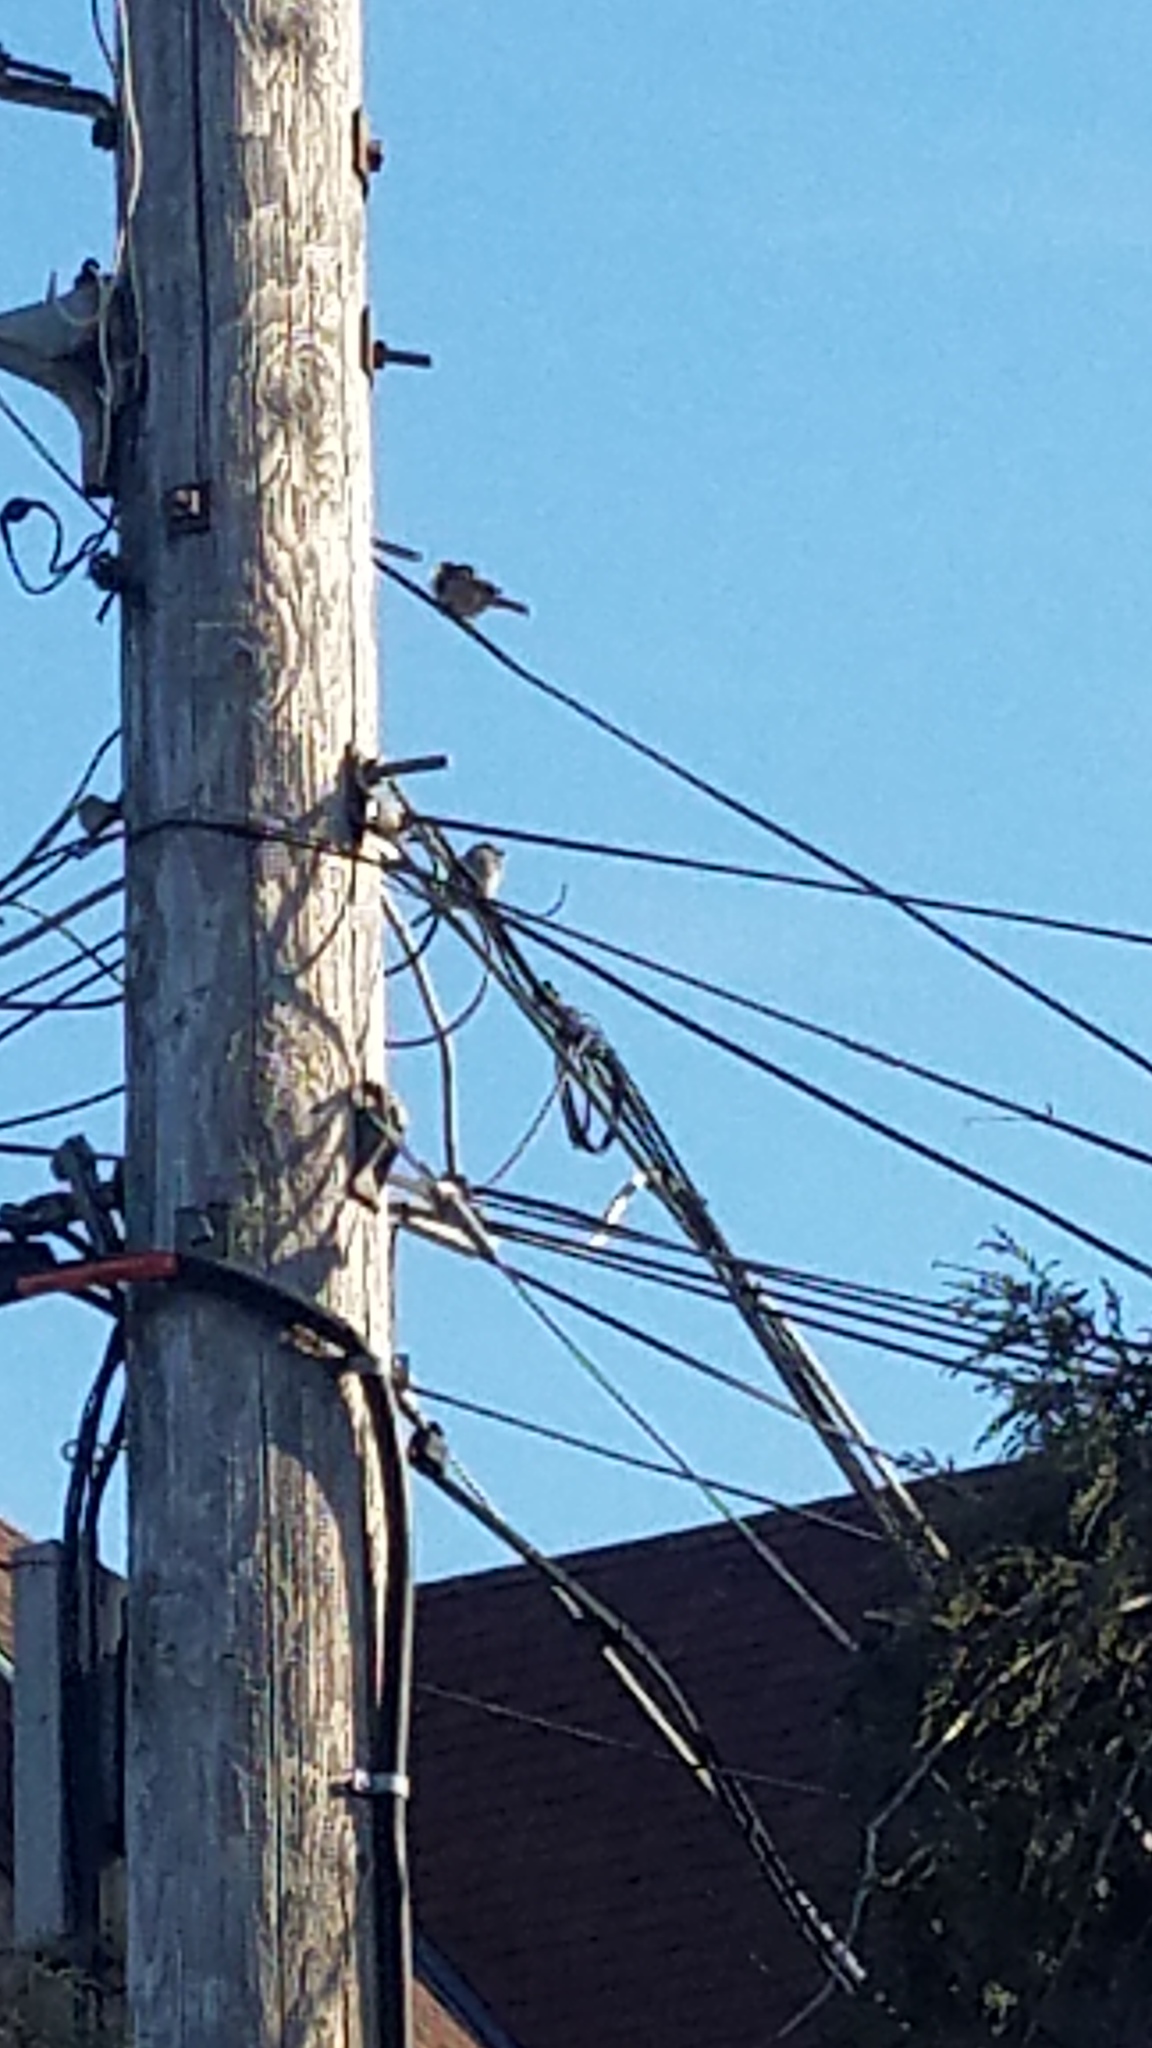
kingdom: Animalia
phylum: Chordata
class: Aves
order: Passeriformes
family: Passeridae
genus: Passer
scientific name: Passer domesticus
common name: House sparrow
